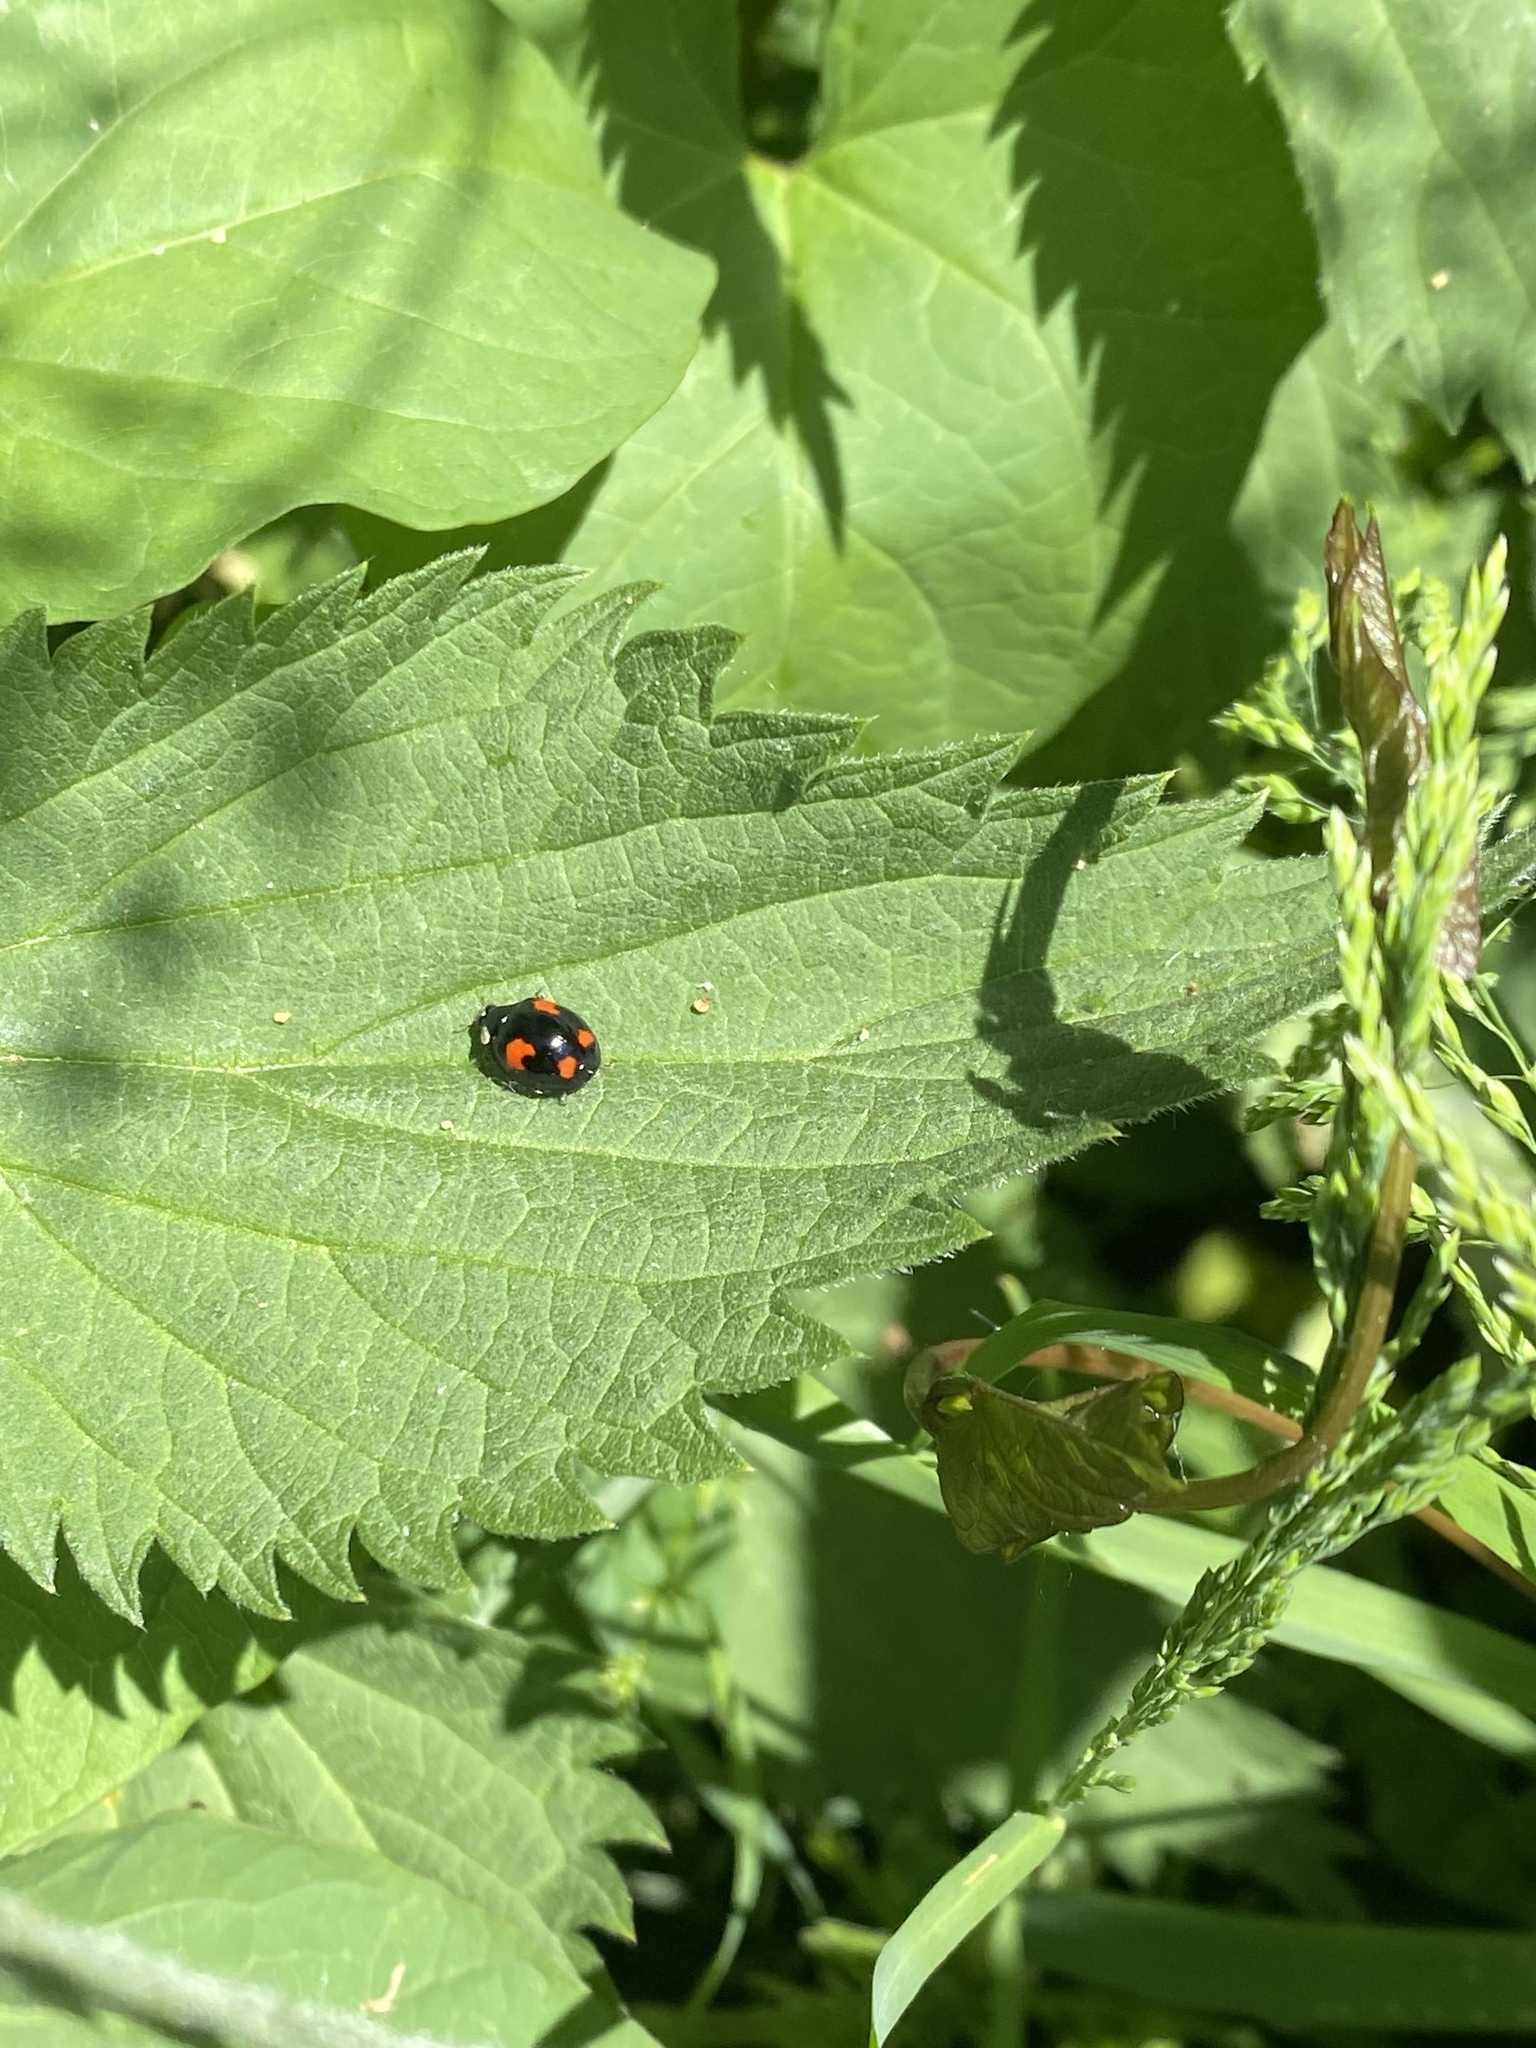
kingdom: Animalia
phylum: Arthropoda
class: Insecta
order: Coleoptera
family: Coccinellidae
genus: Harmonia
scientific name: Harmonia axyridis
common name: Harlequin ladybird
